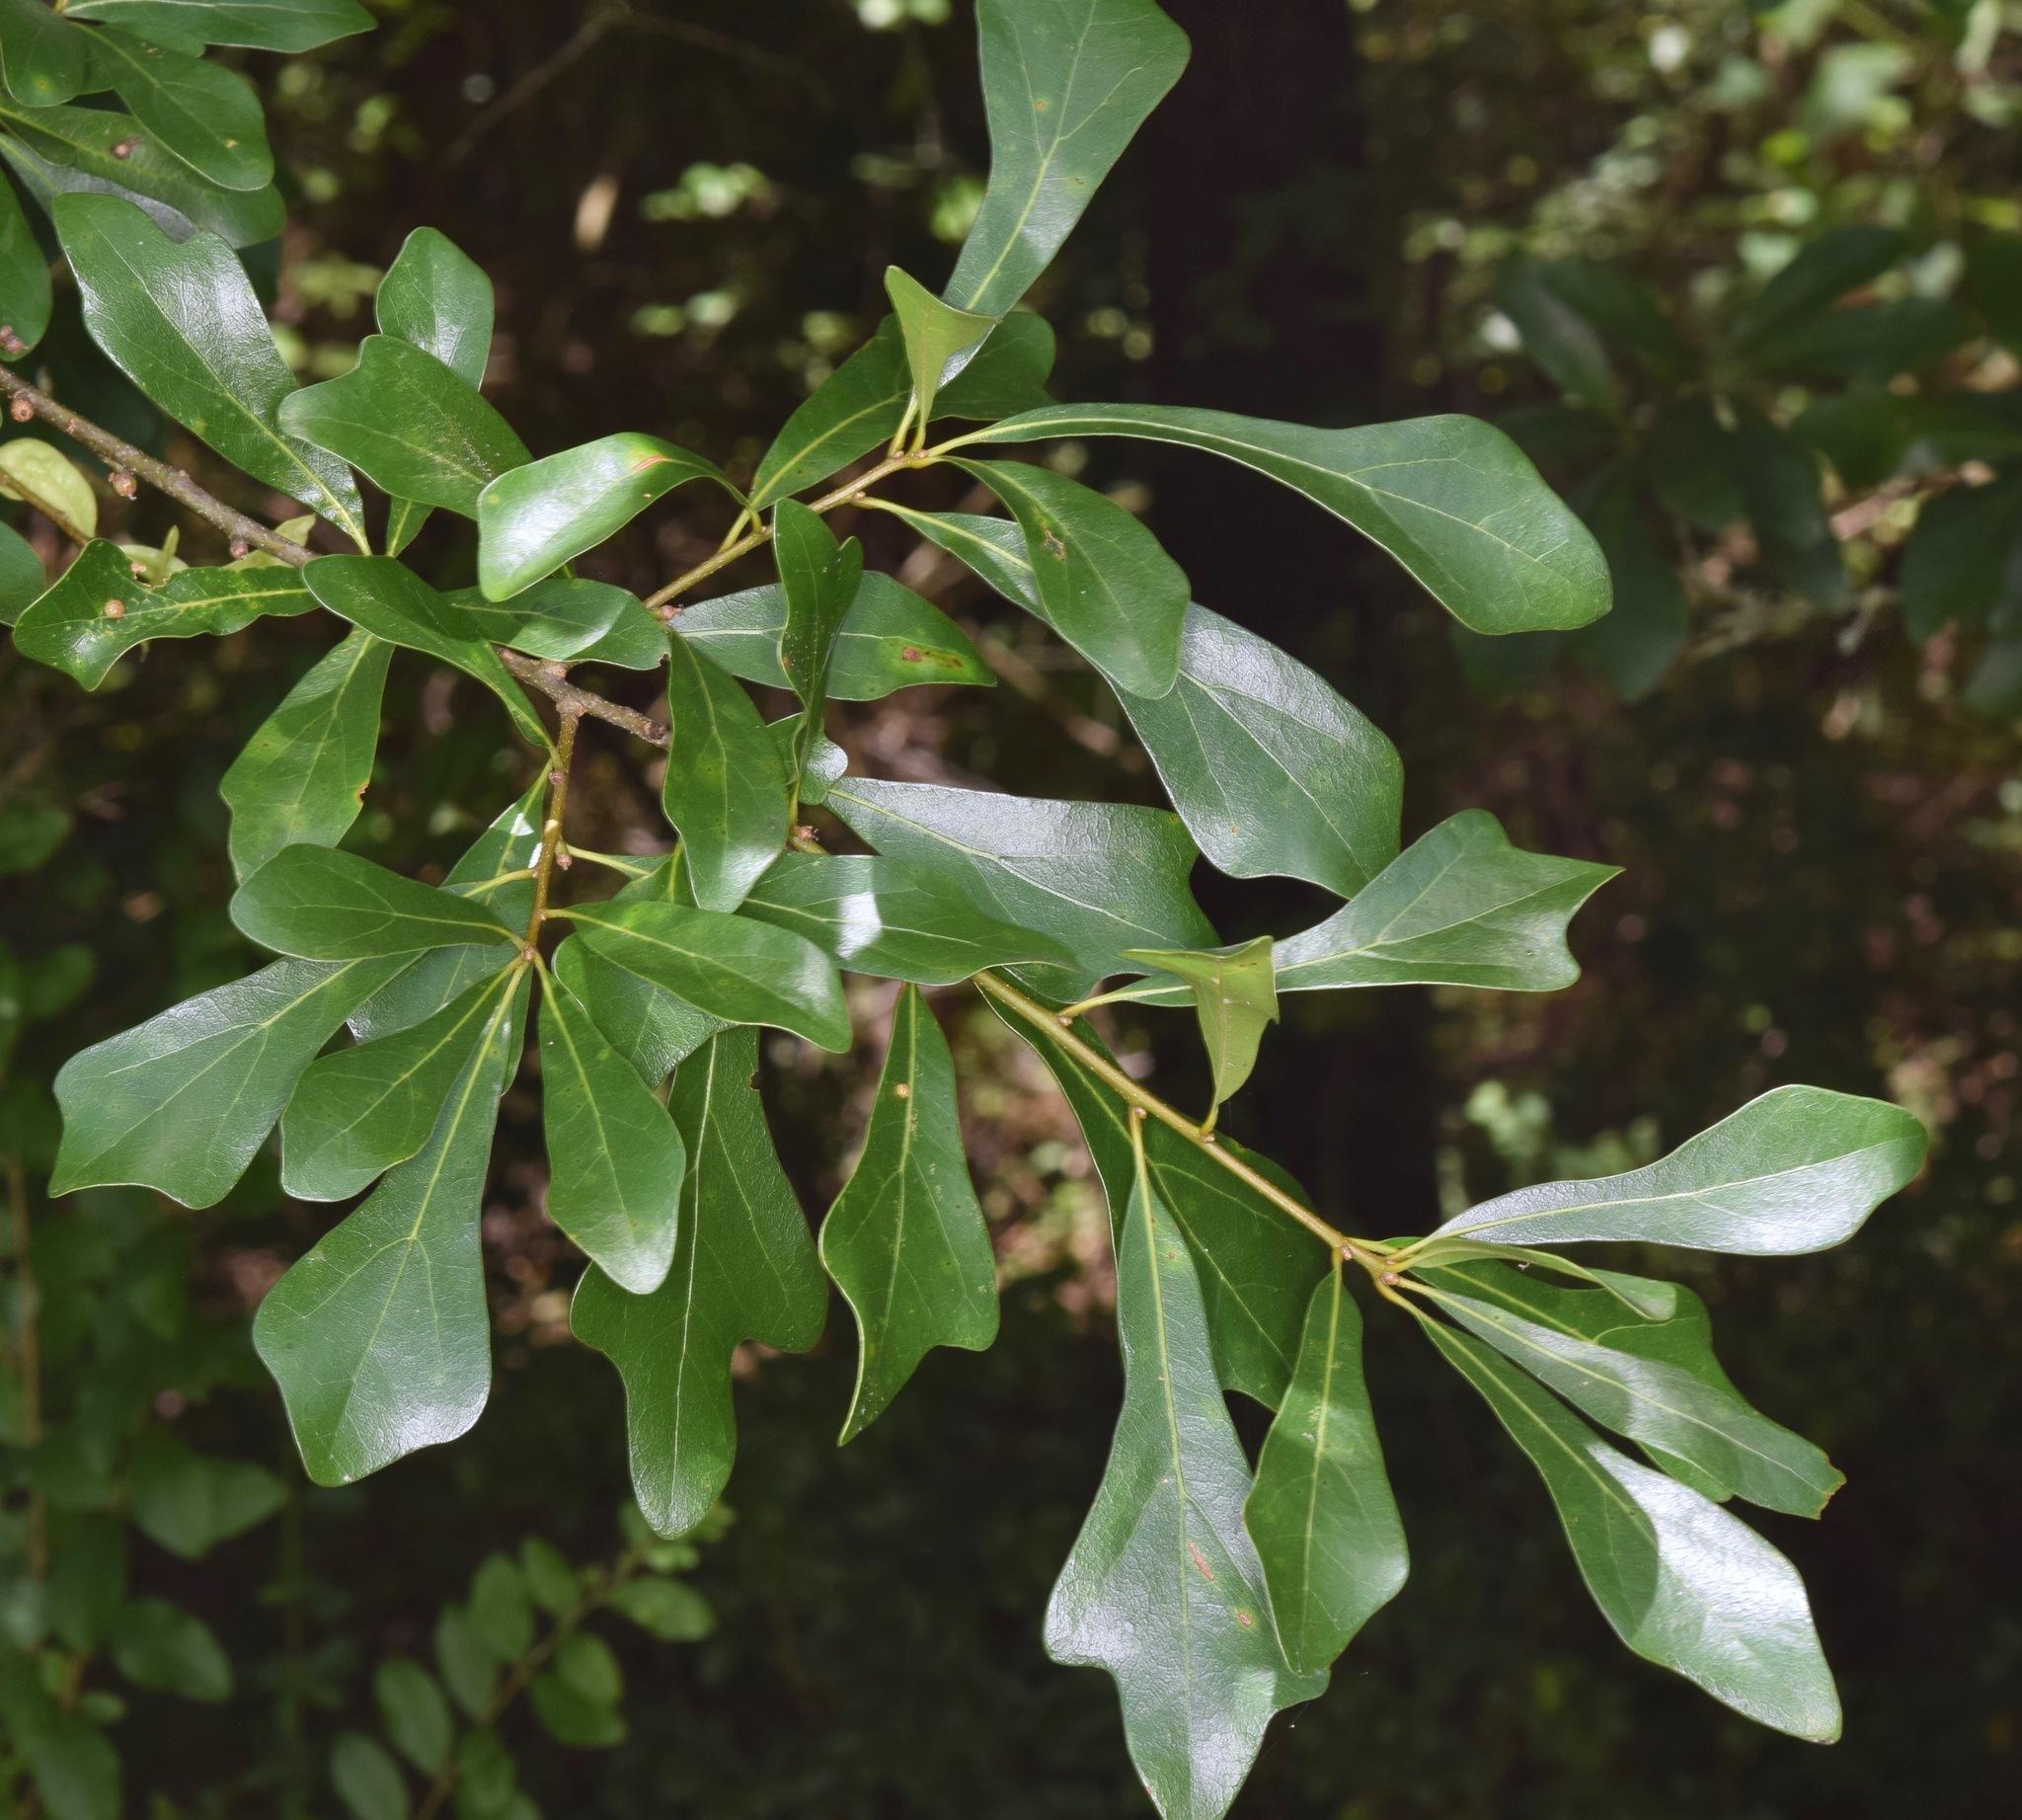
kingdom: Plantae
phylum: Tracheophyta
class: Magnoliopsida
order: Fagales
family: Fagaceae
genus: Quercus
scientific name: Quercus nigra
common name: Water oak
